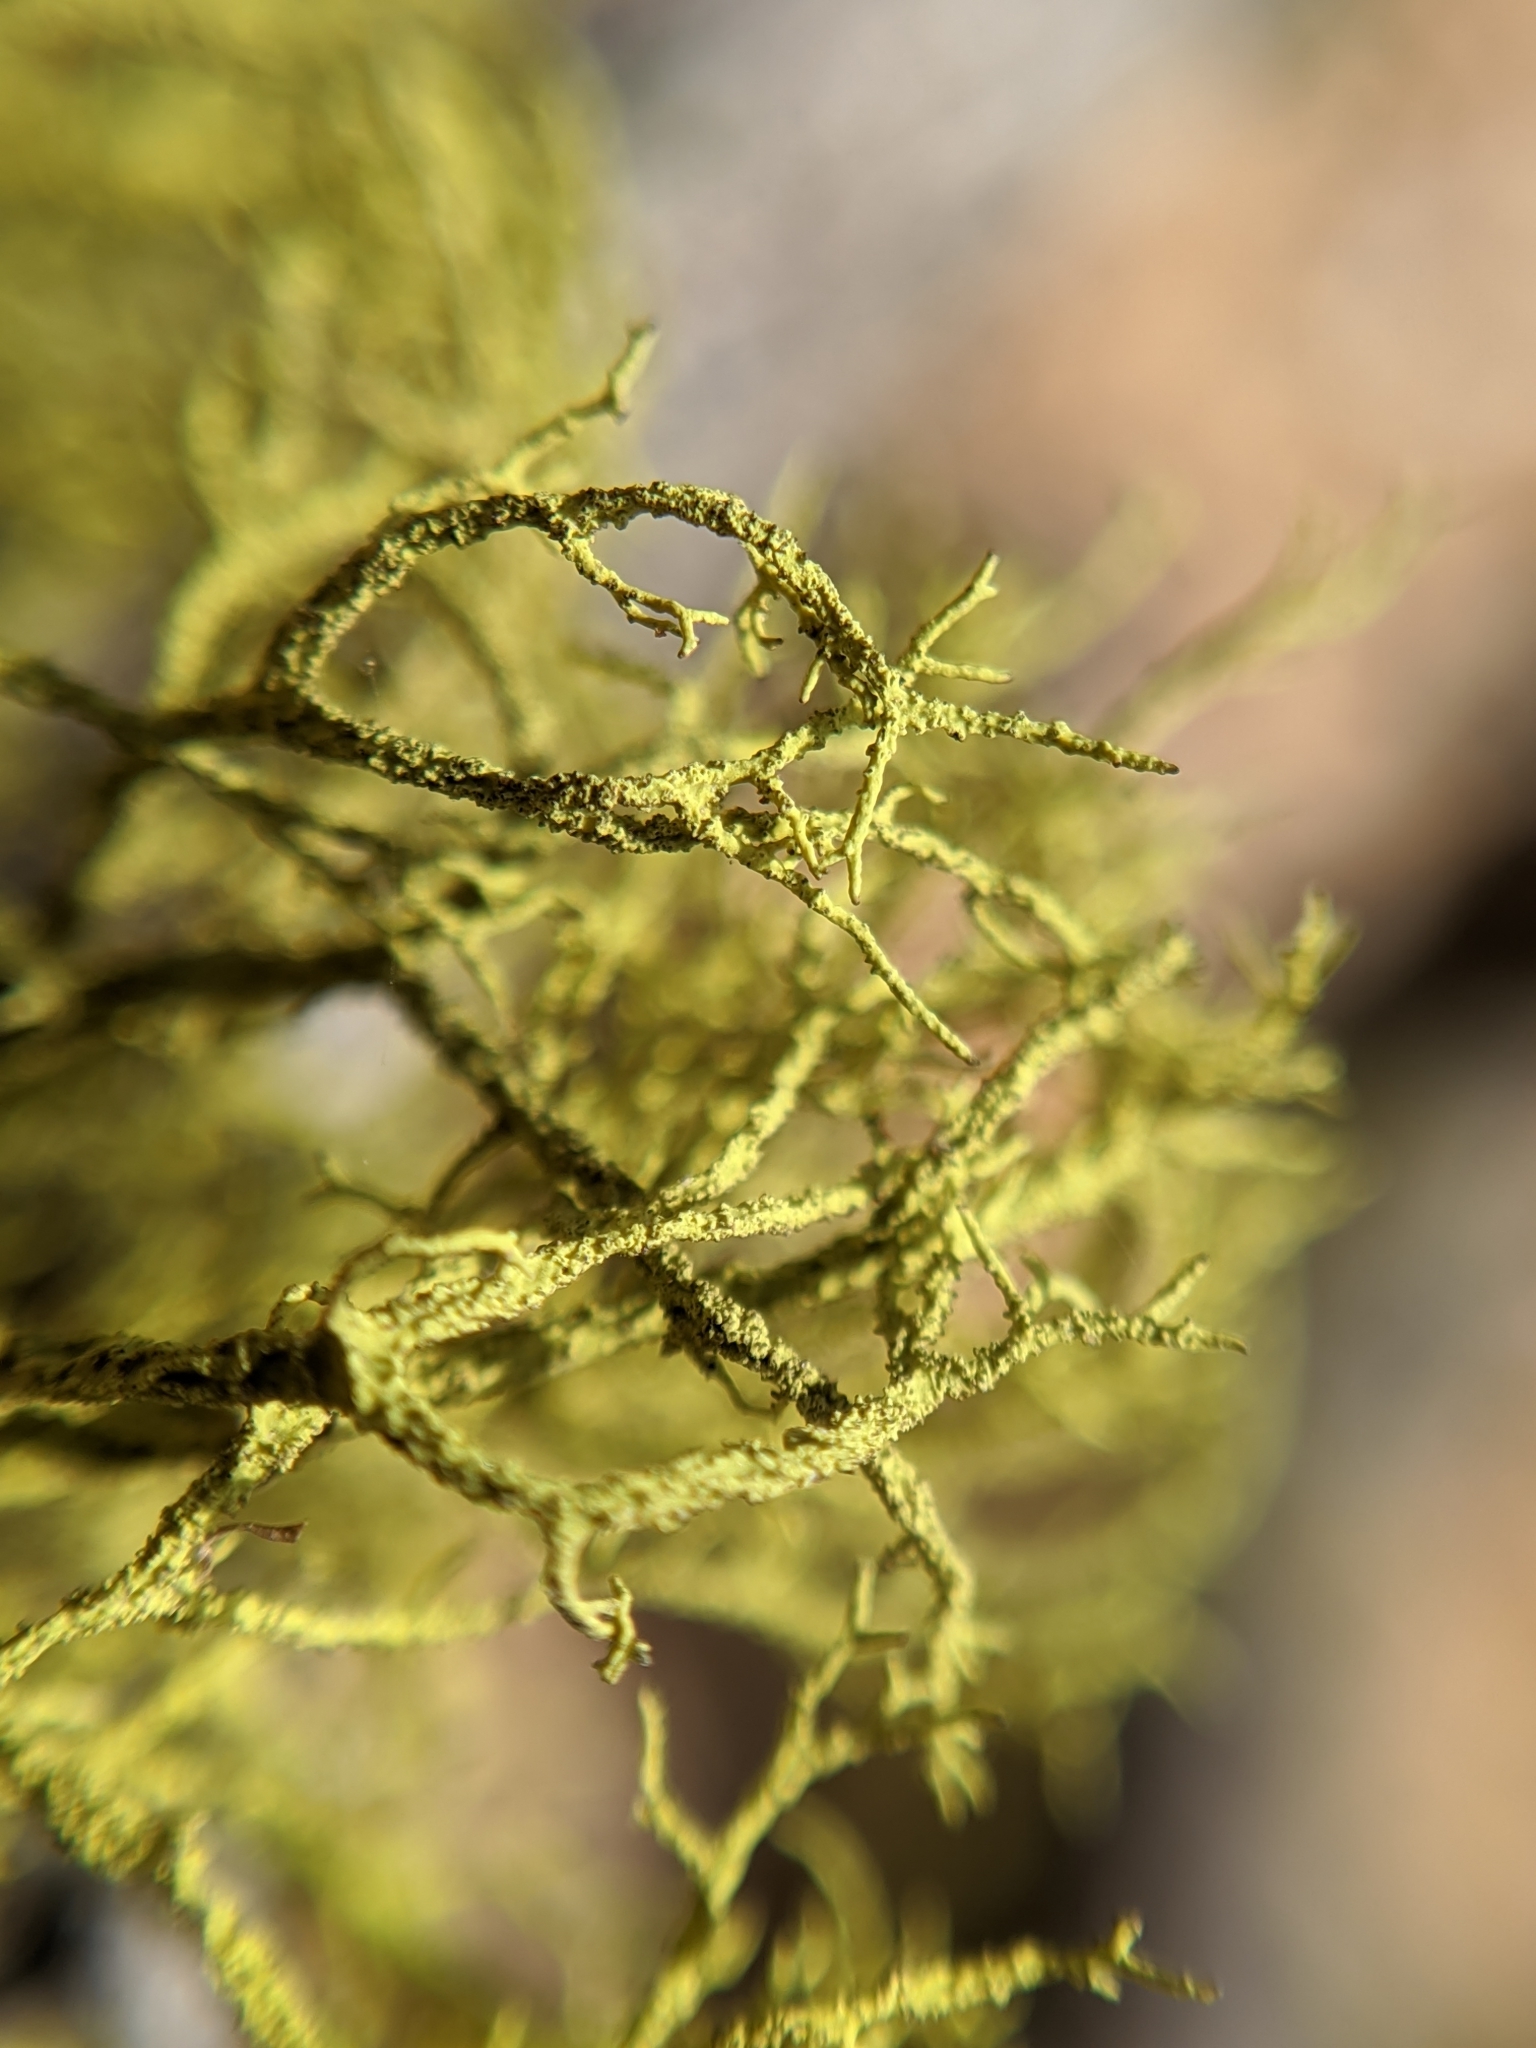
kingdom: Fungi
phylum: Ascomycota
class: Lecanoromycetes
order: Lecanorales
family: Parmeliaceae
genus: Letharia
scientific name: Letharia vulpina
